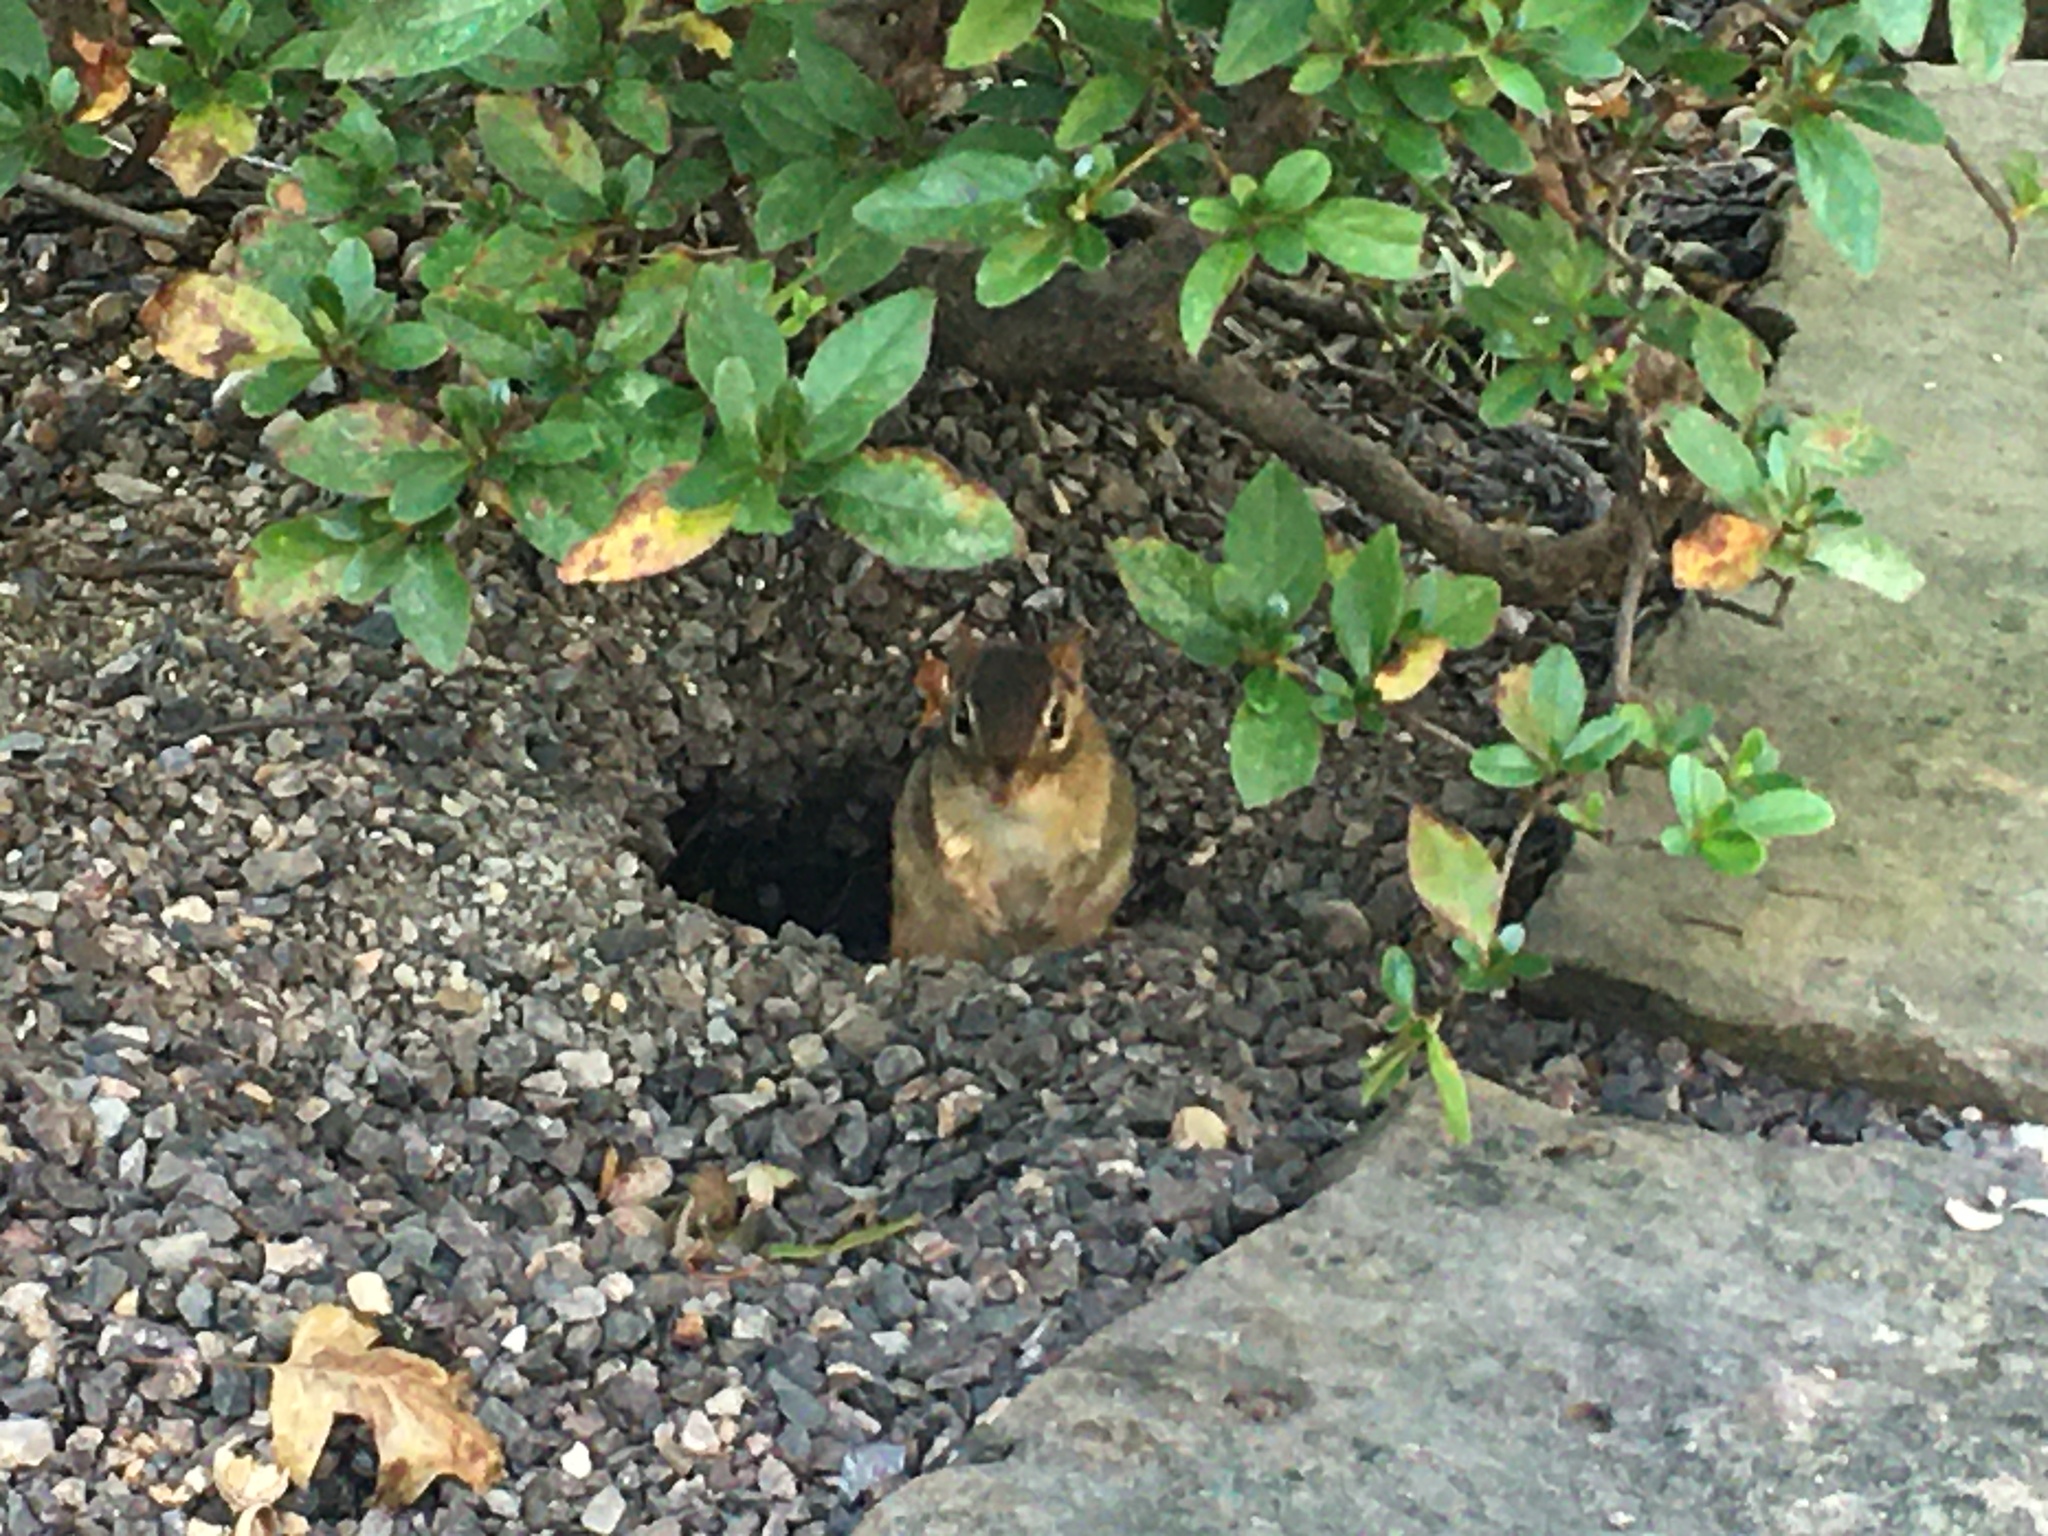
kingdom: Animalia
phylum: Chordata
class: Mammalia
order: Rodentia
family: Sciuridae
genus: Tamias
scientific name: Tamias striatus
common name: Eastern chipmunk
